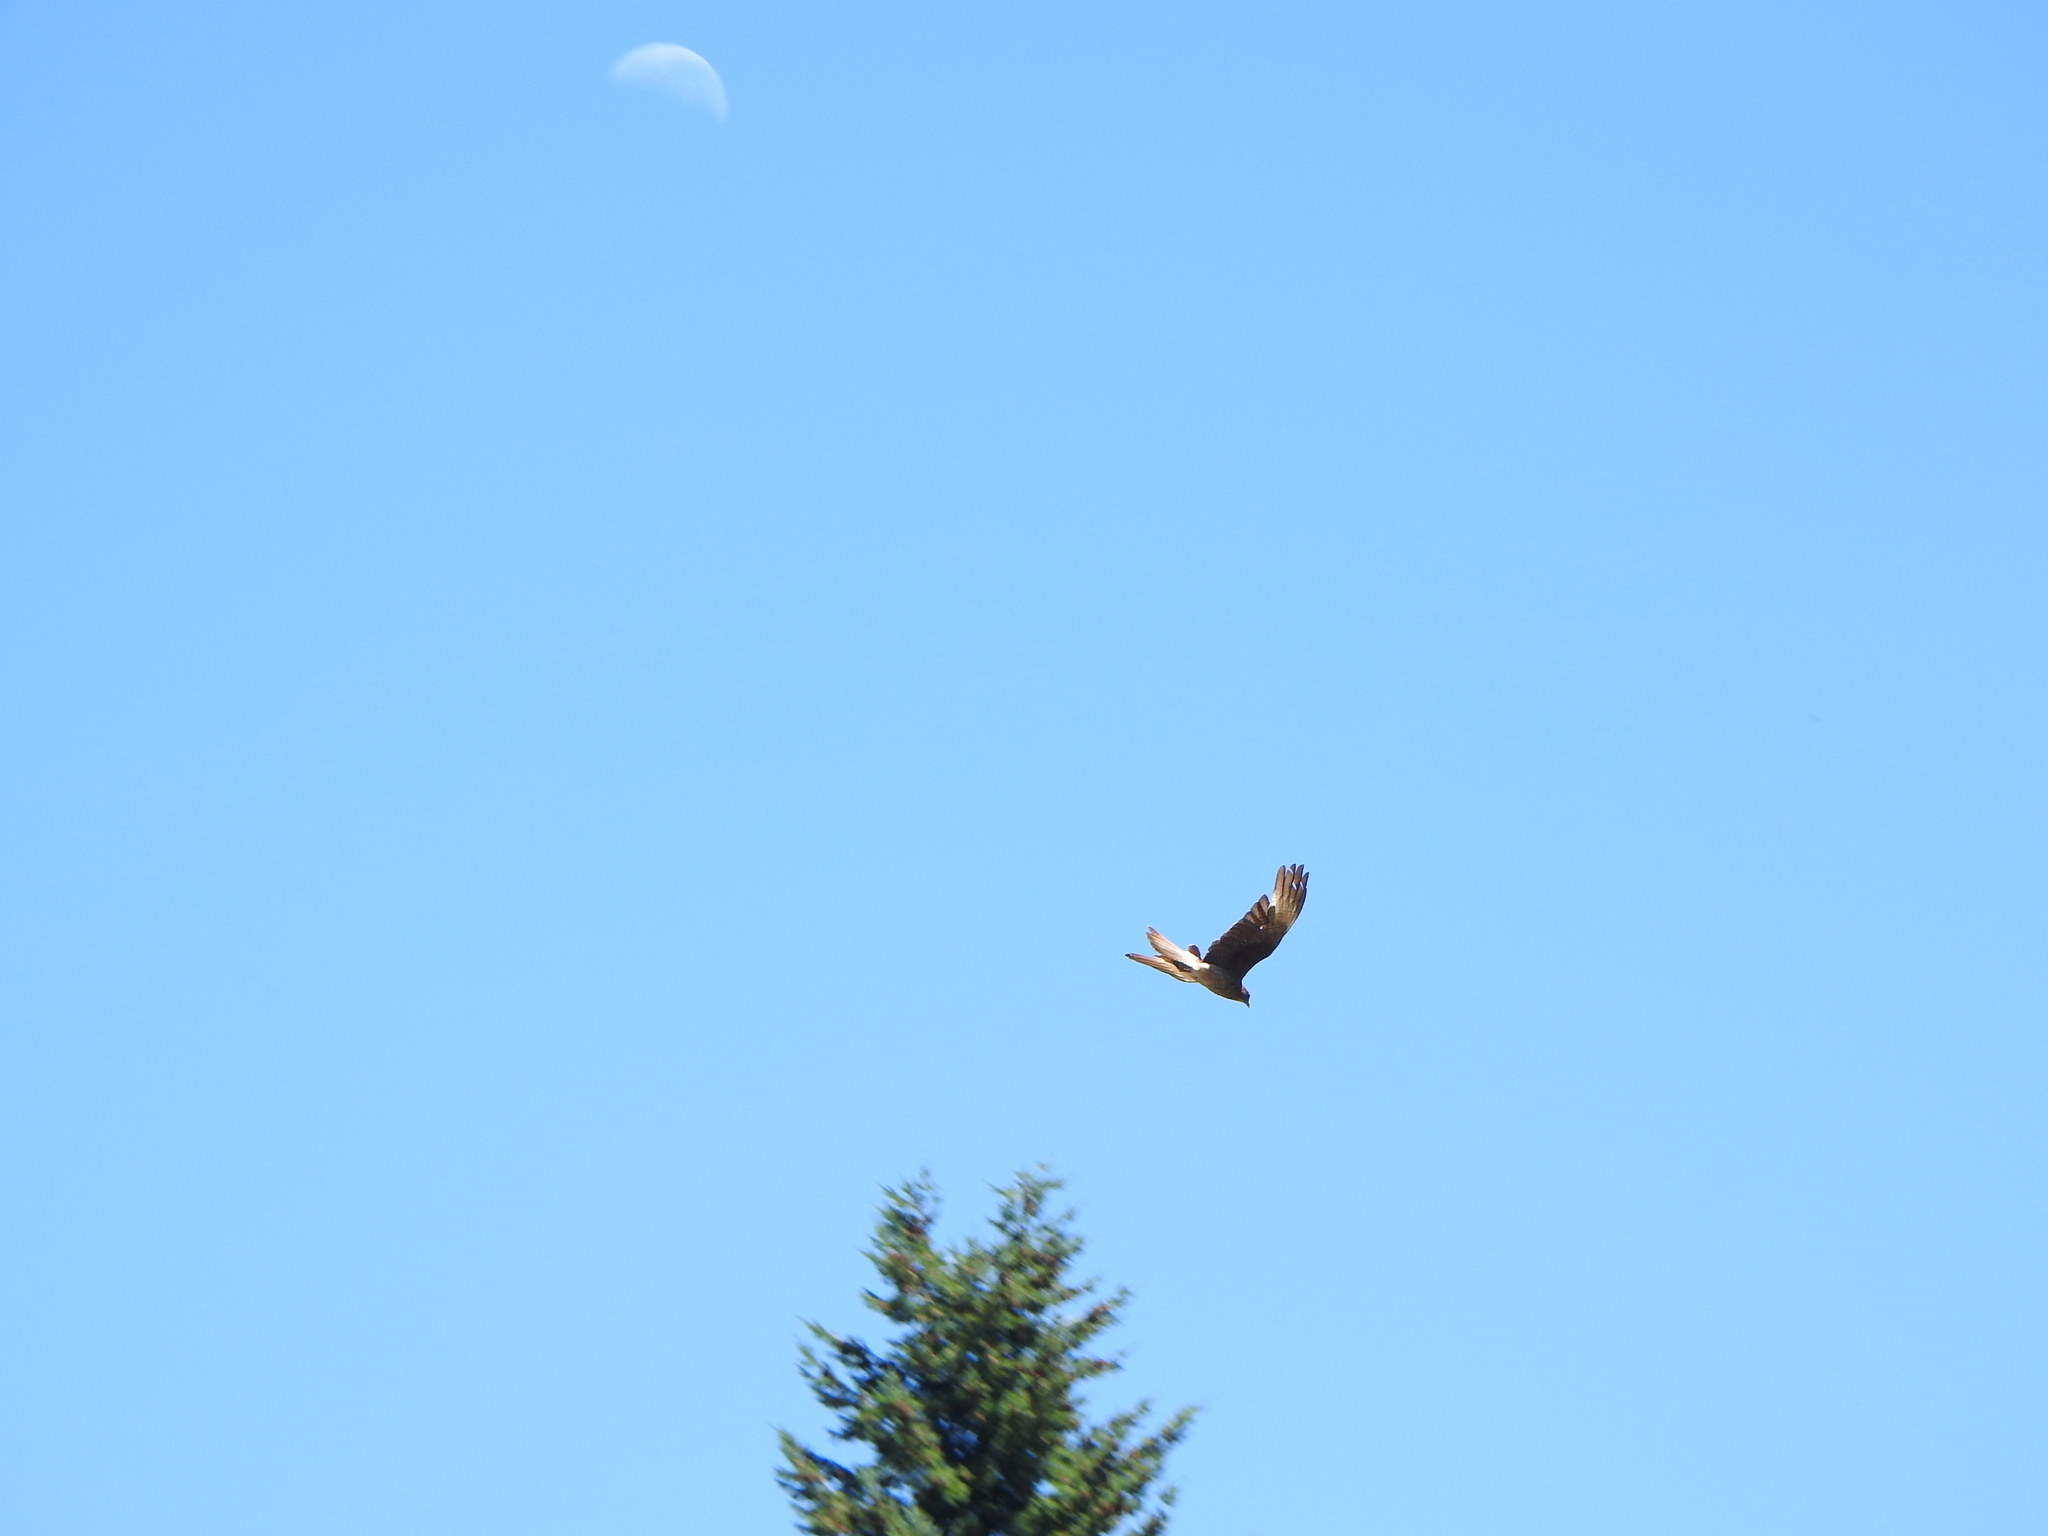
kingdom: Animalia
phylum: Chordata
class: Aves
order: Falconiformes
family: Falconidae
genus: Daptrius
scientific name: Daptrius
